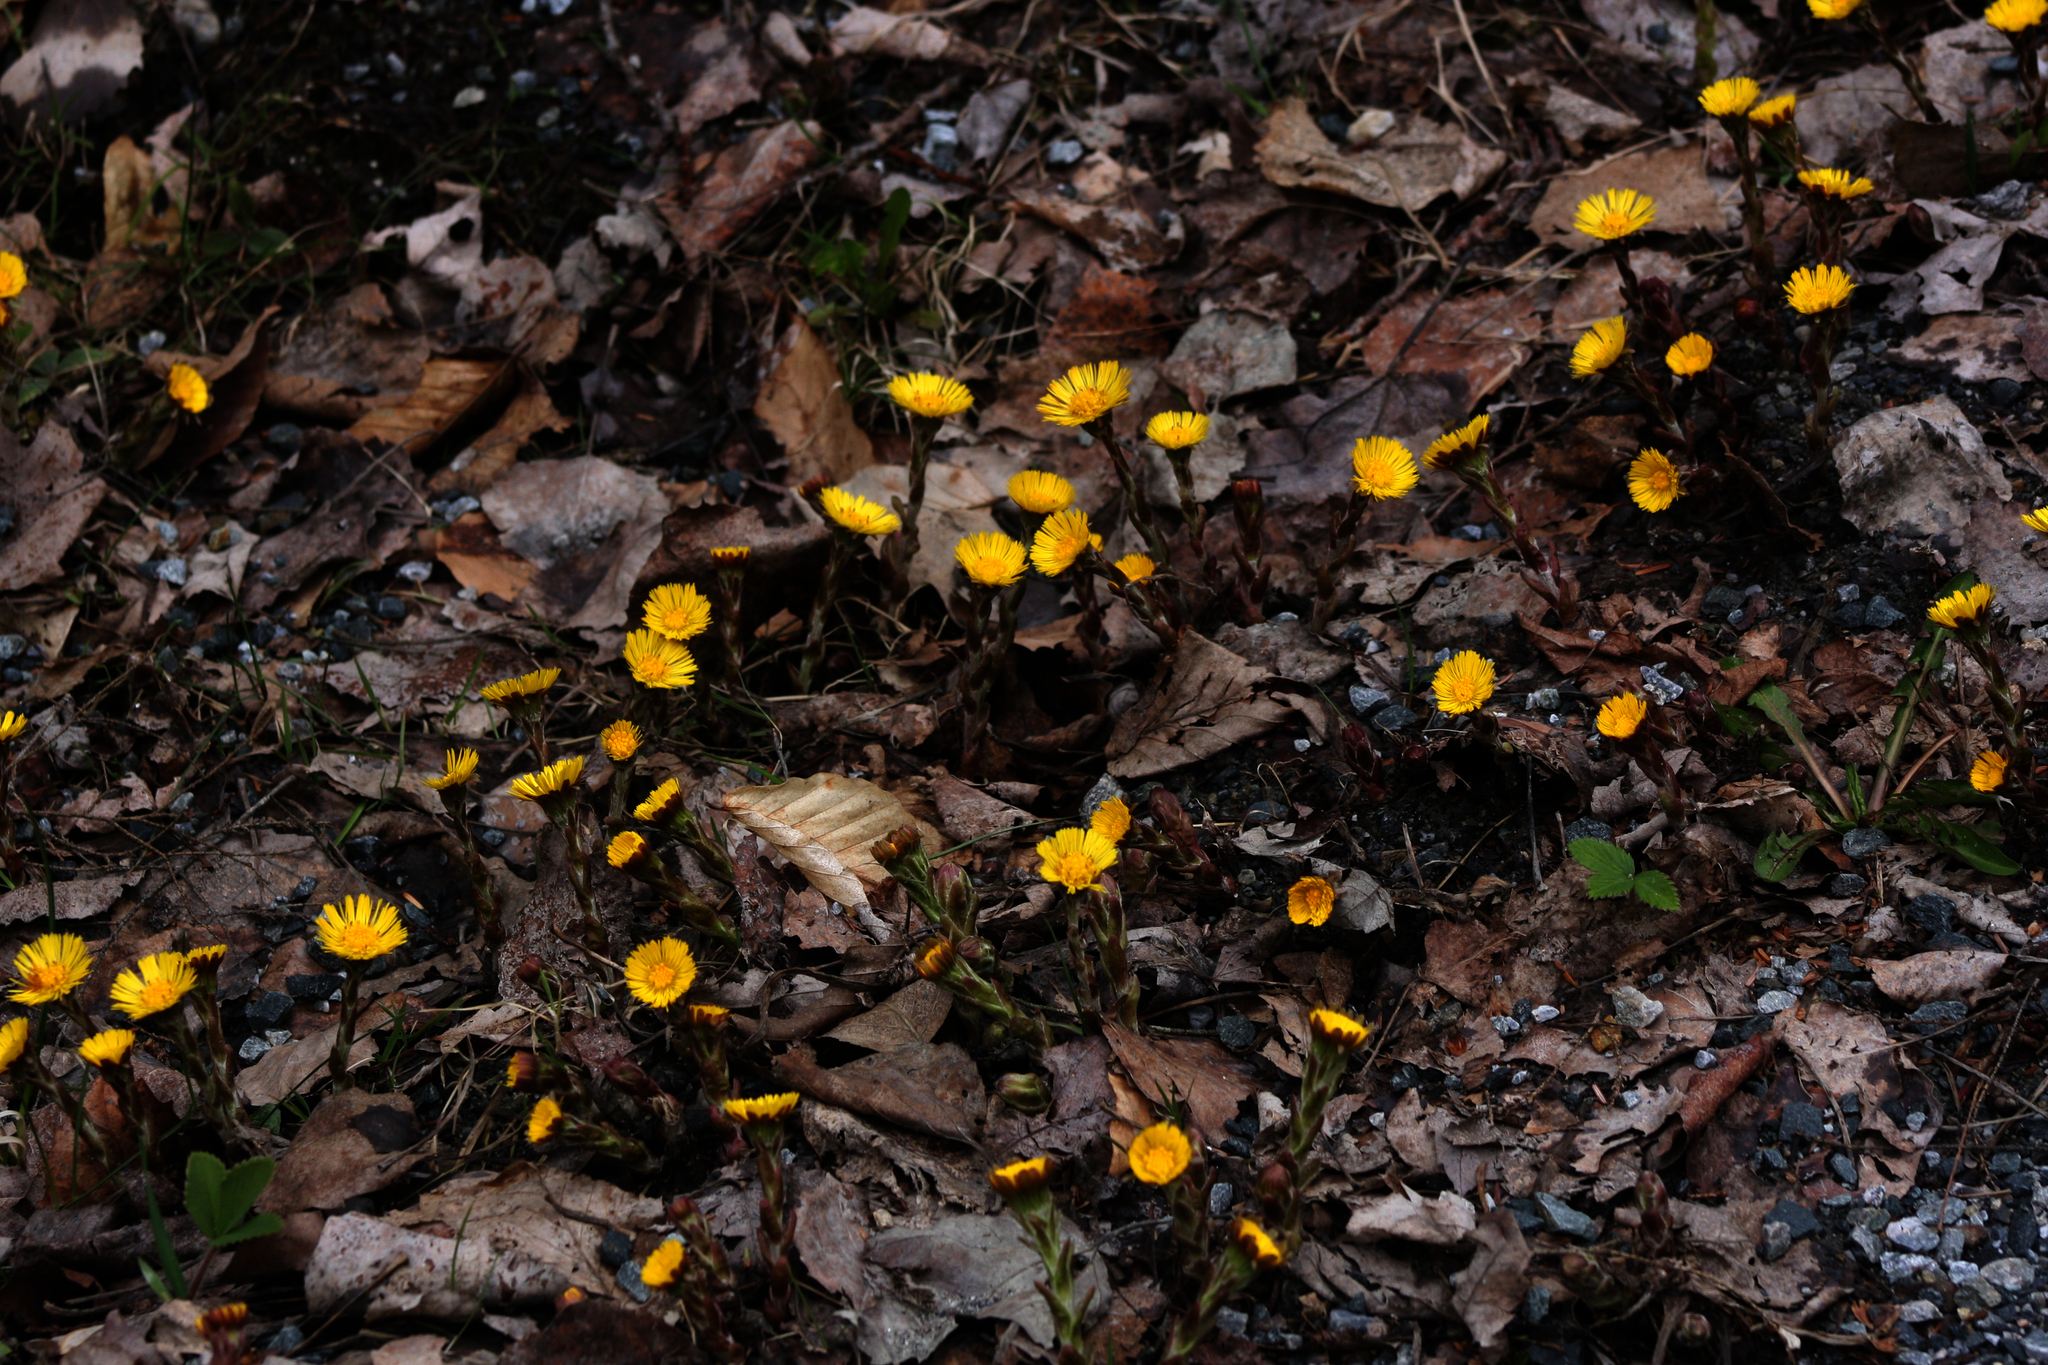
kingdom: Plantae
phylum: Tracheophyta
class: Magnoliopsida
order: Asterales
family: Asteraceae
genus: Tussilago
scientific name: Tussilago farfara
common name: Coltsfoot
